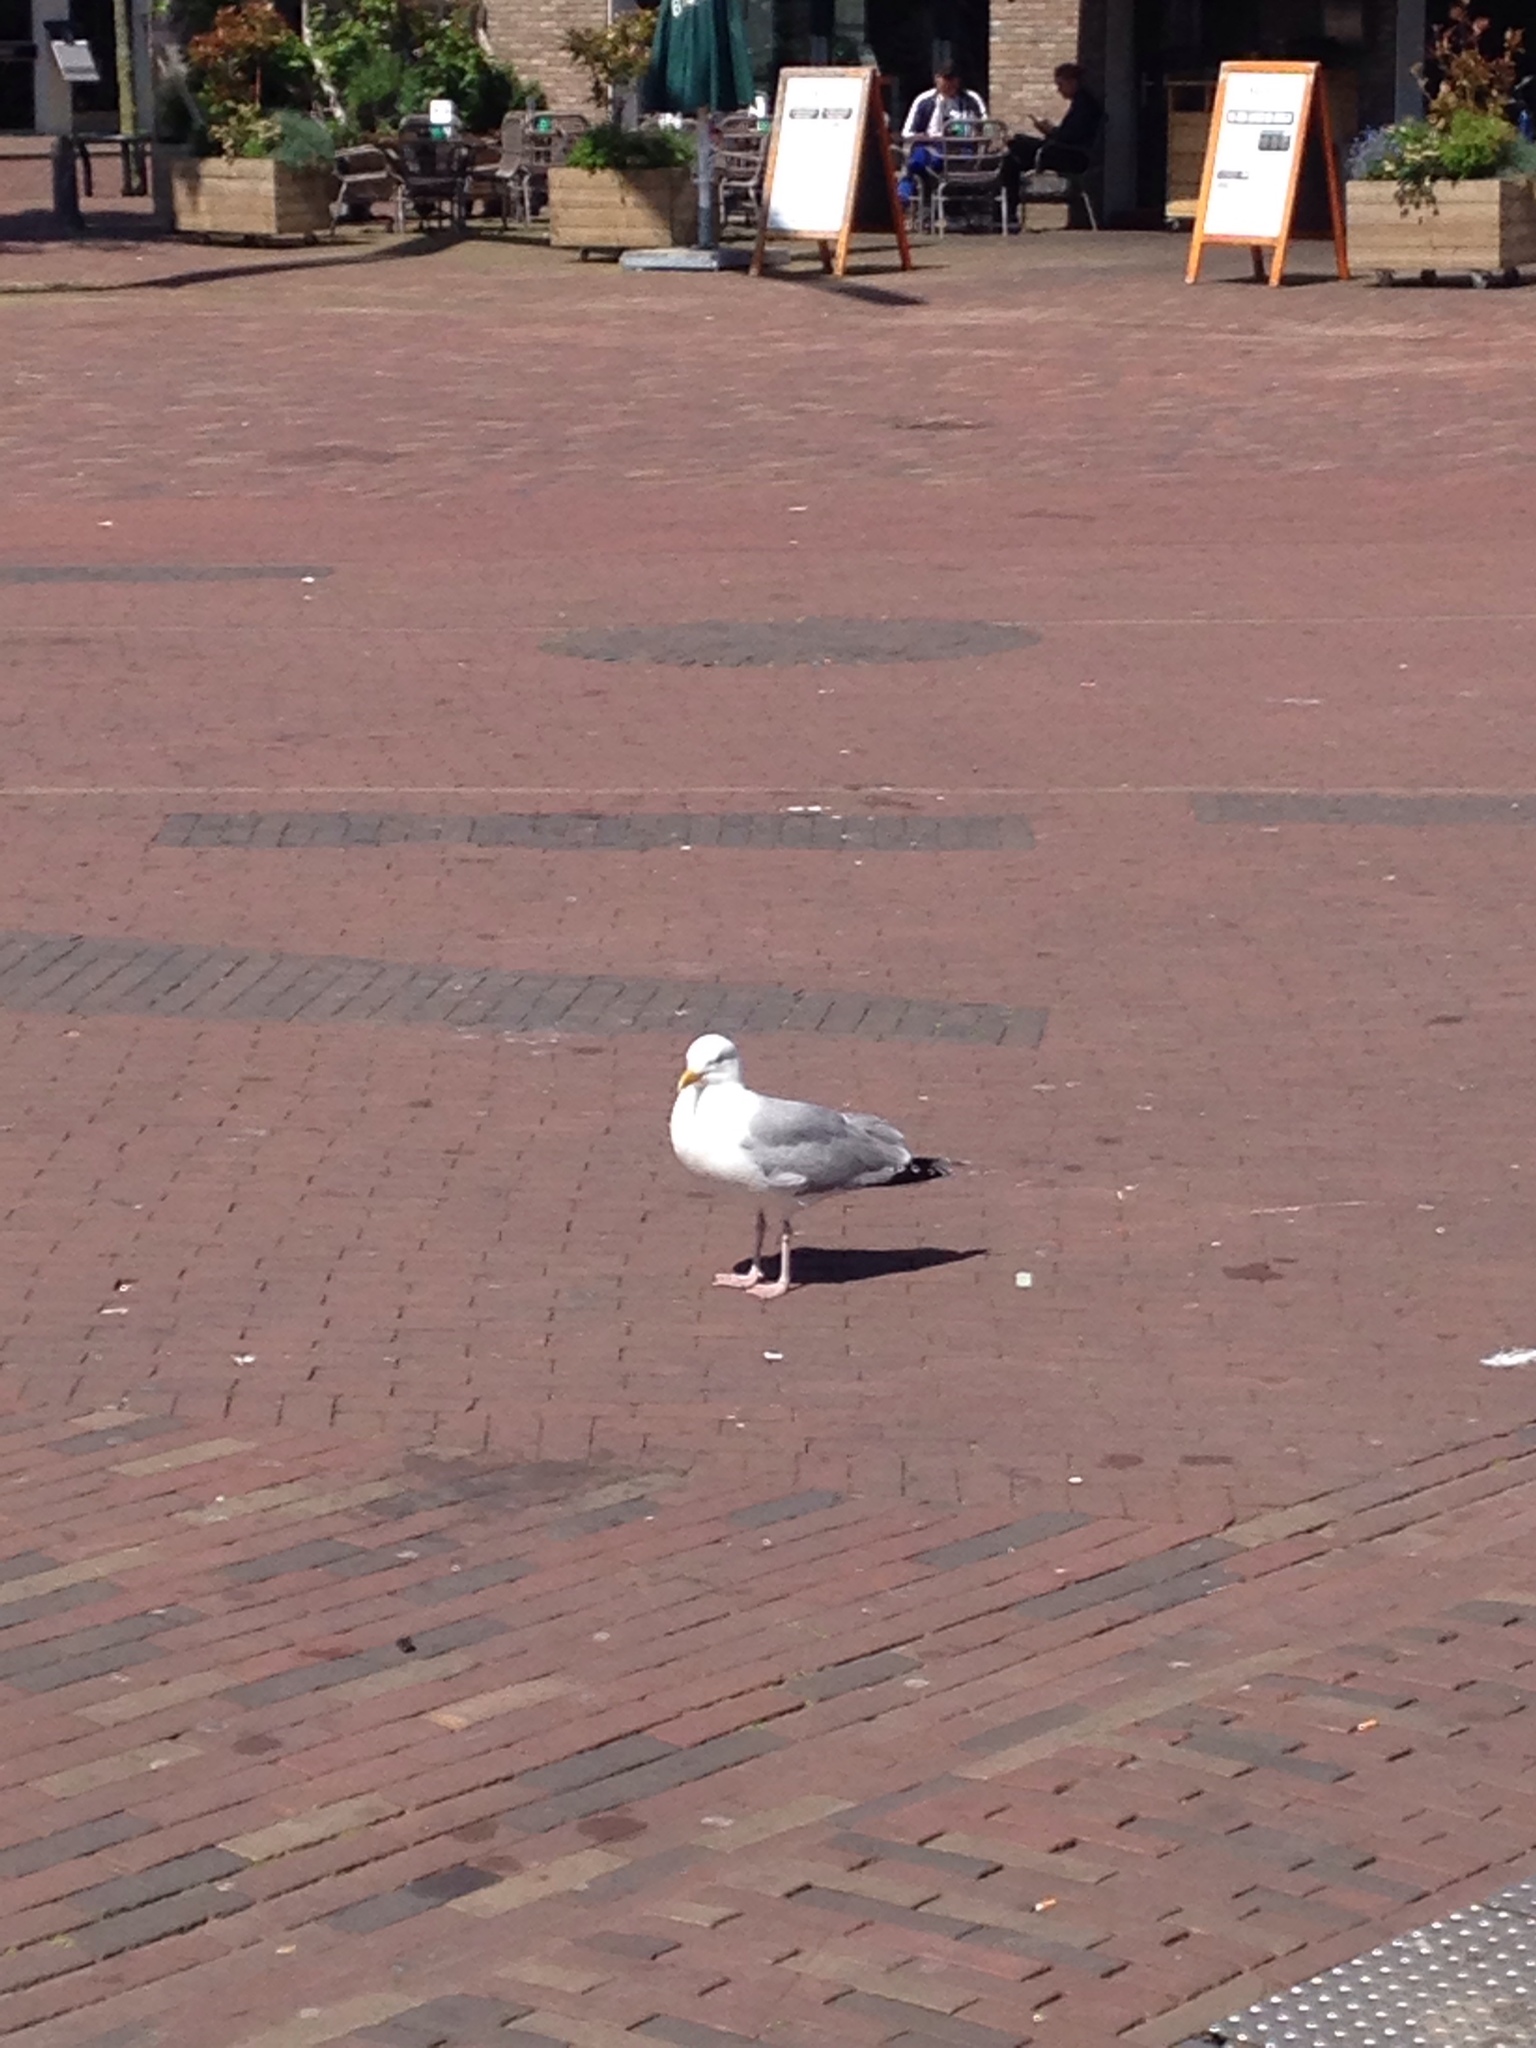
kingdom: Animalia
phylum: Chordata
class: Aves
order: Charadriiformes
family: Laridae
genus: Larus
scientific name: Larus argentatus
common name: Herring gull
